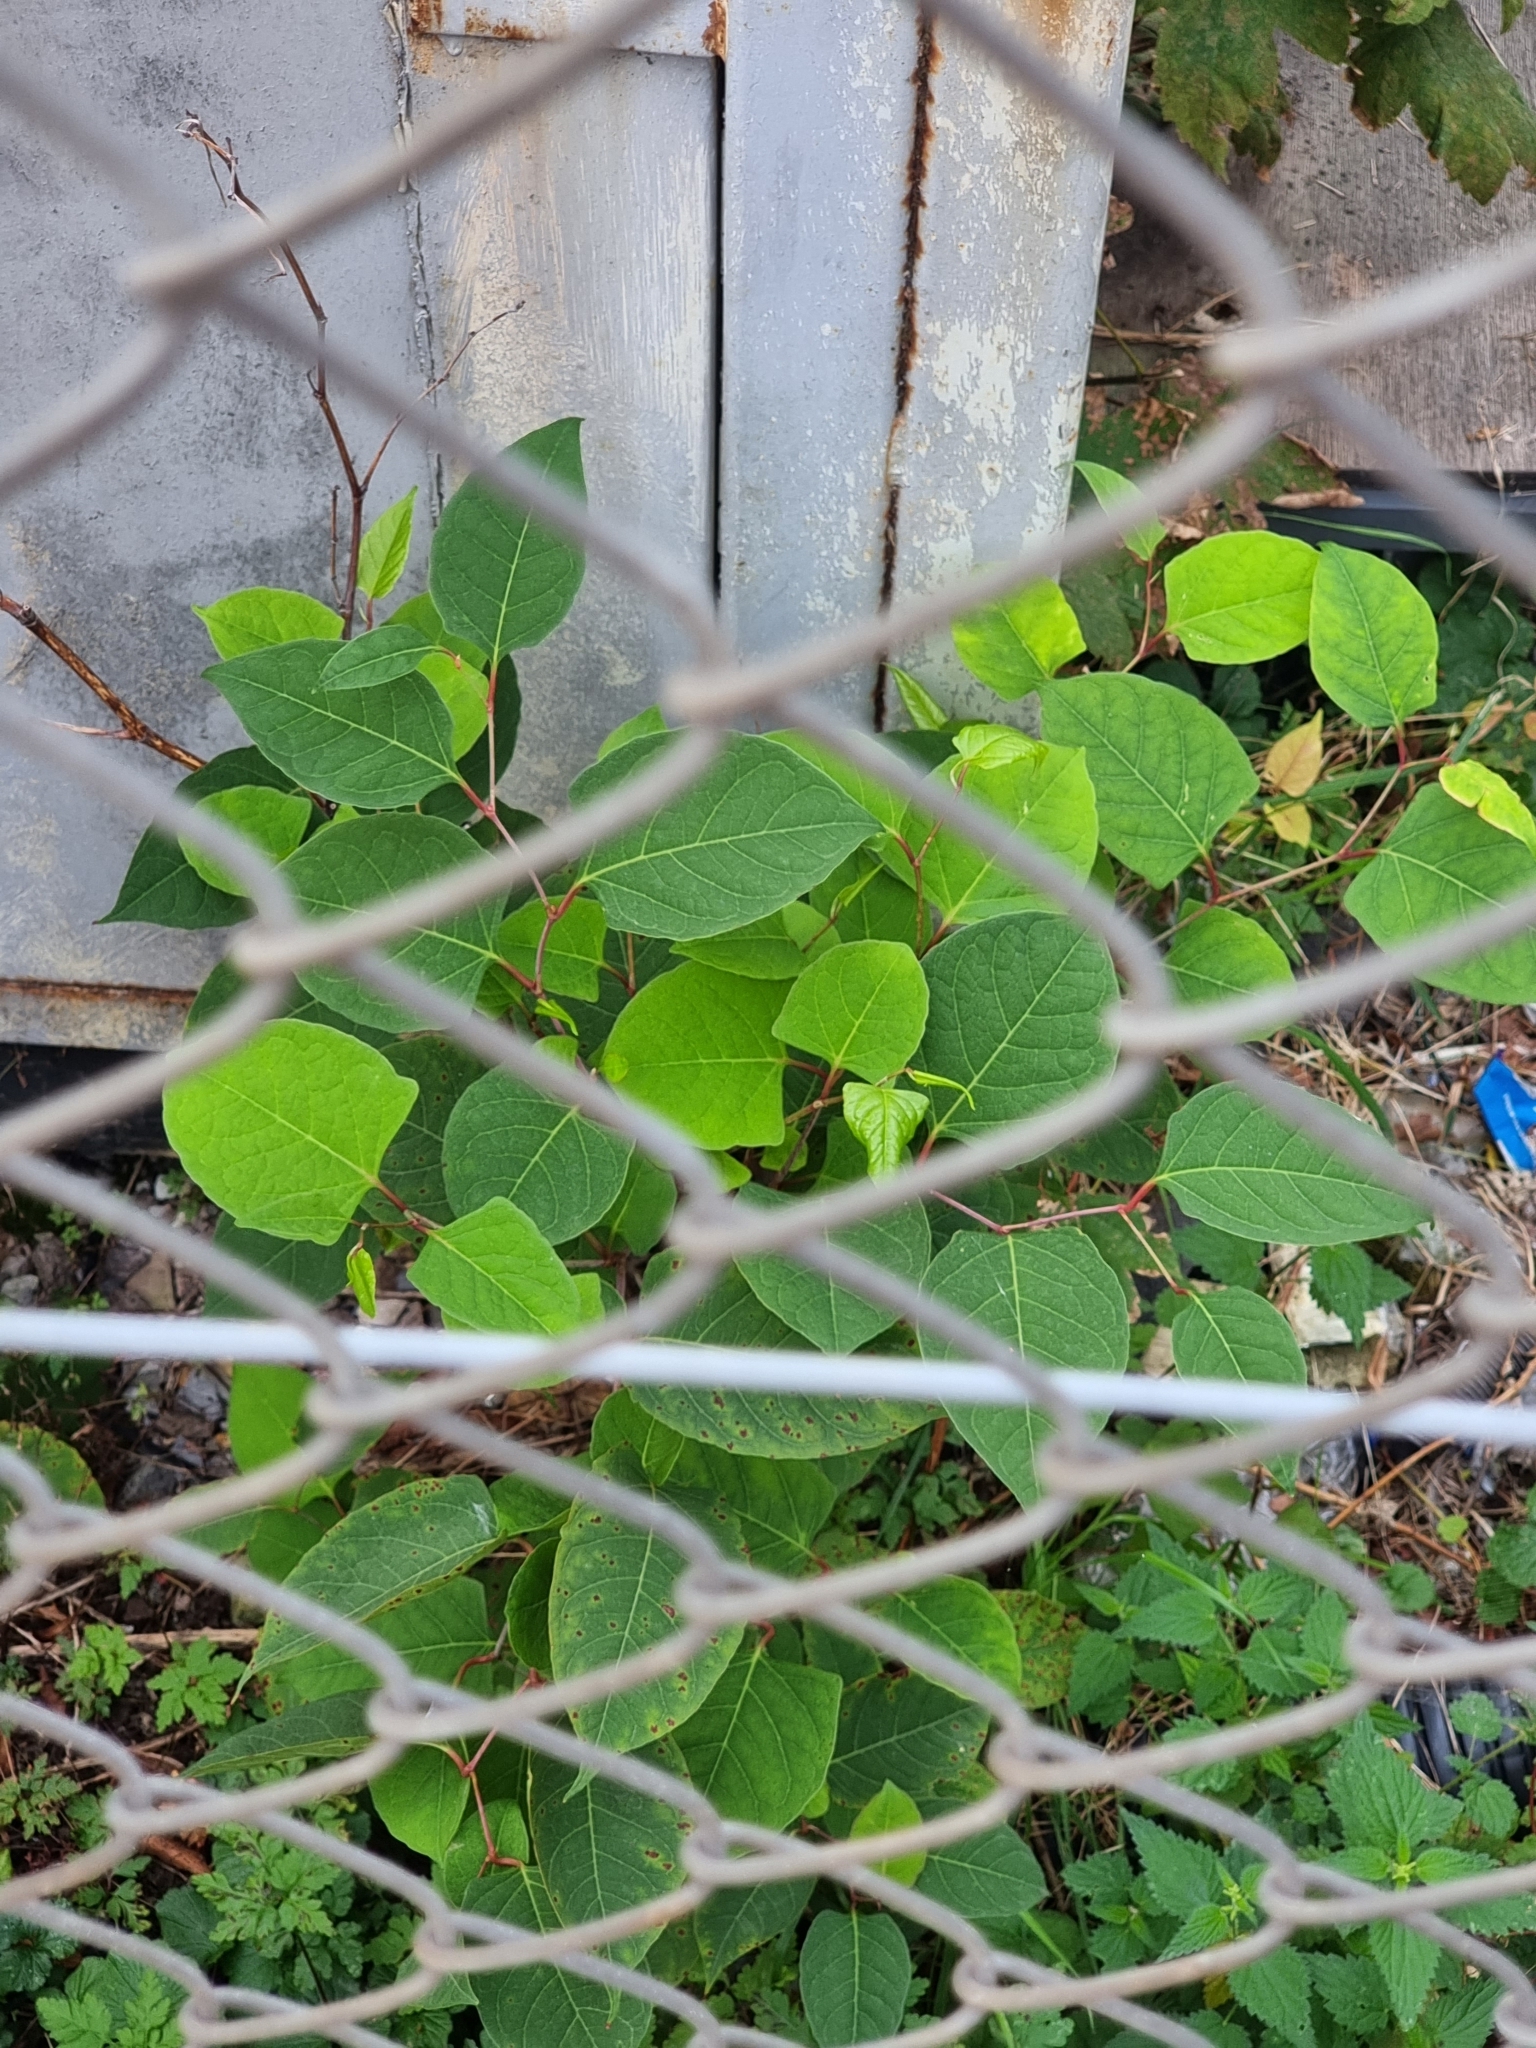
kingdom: Plantae
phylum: Tracheophyta
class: Magnoliopsida
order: Caryophyllales
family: Polygonaceae
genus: Reynoutria
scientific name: Reynoutria japonica
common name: Japanese knotweed
